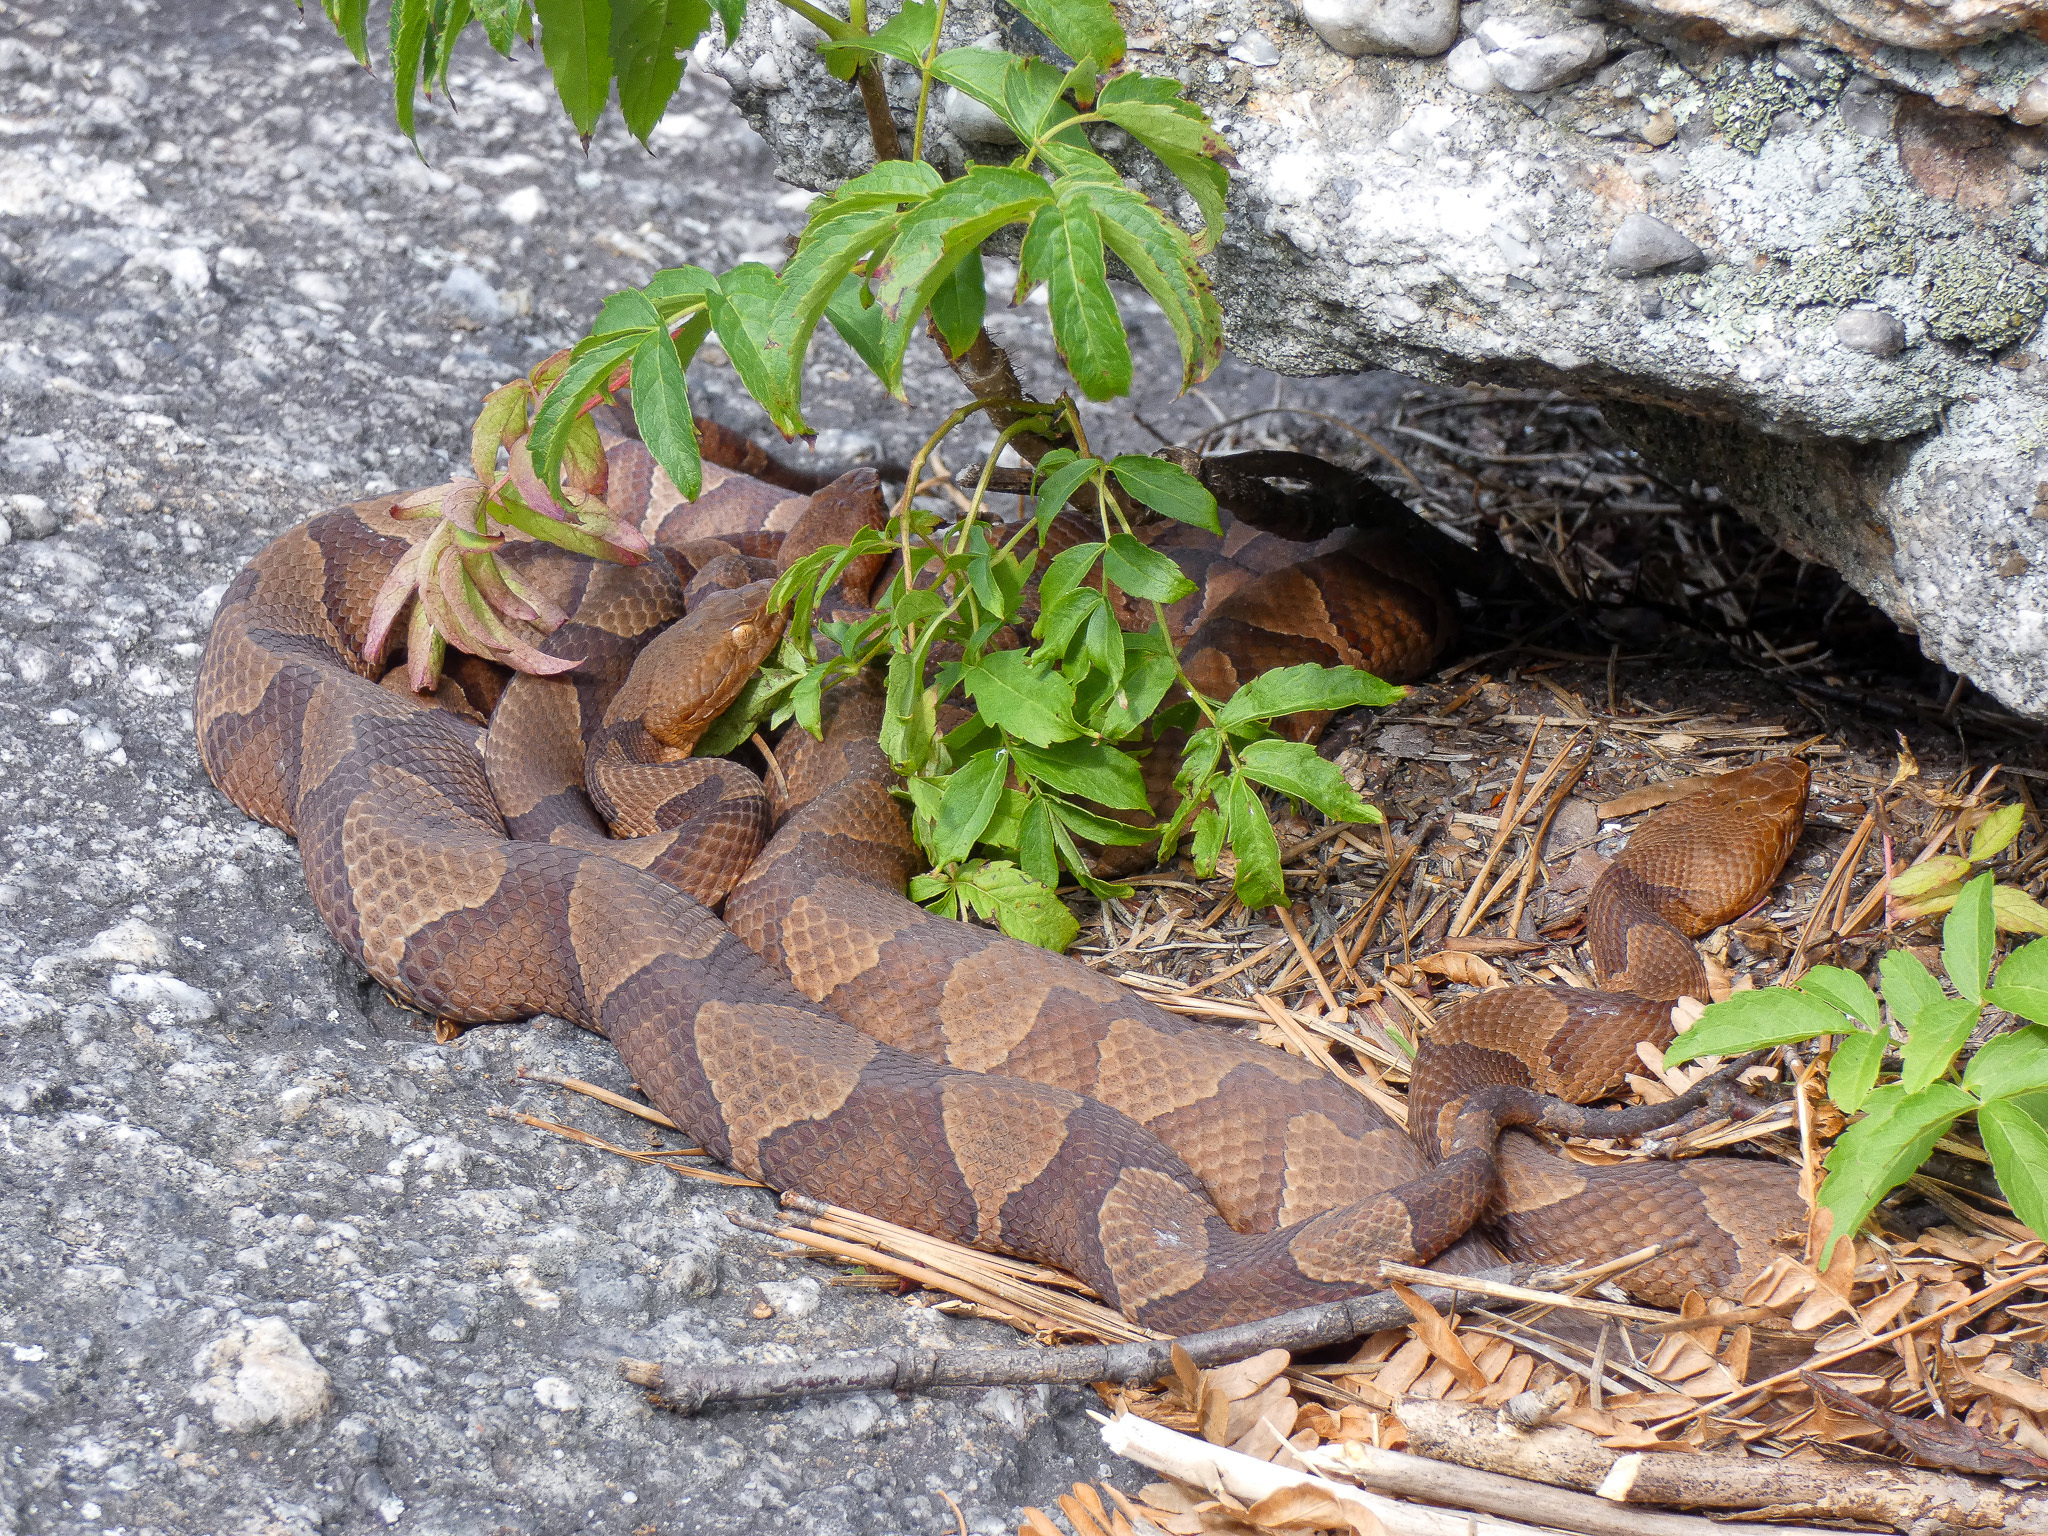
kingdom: Animalia
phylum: Chordata
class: Squamata
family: Viperidae
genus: Agkistrodon
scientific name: Agkistrodon contortrix
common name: Northern copperhead
